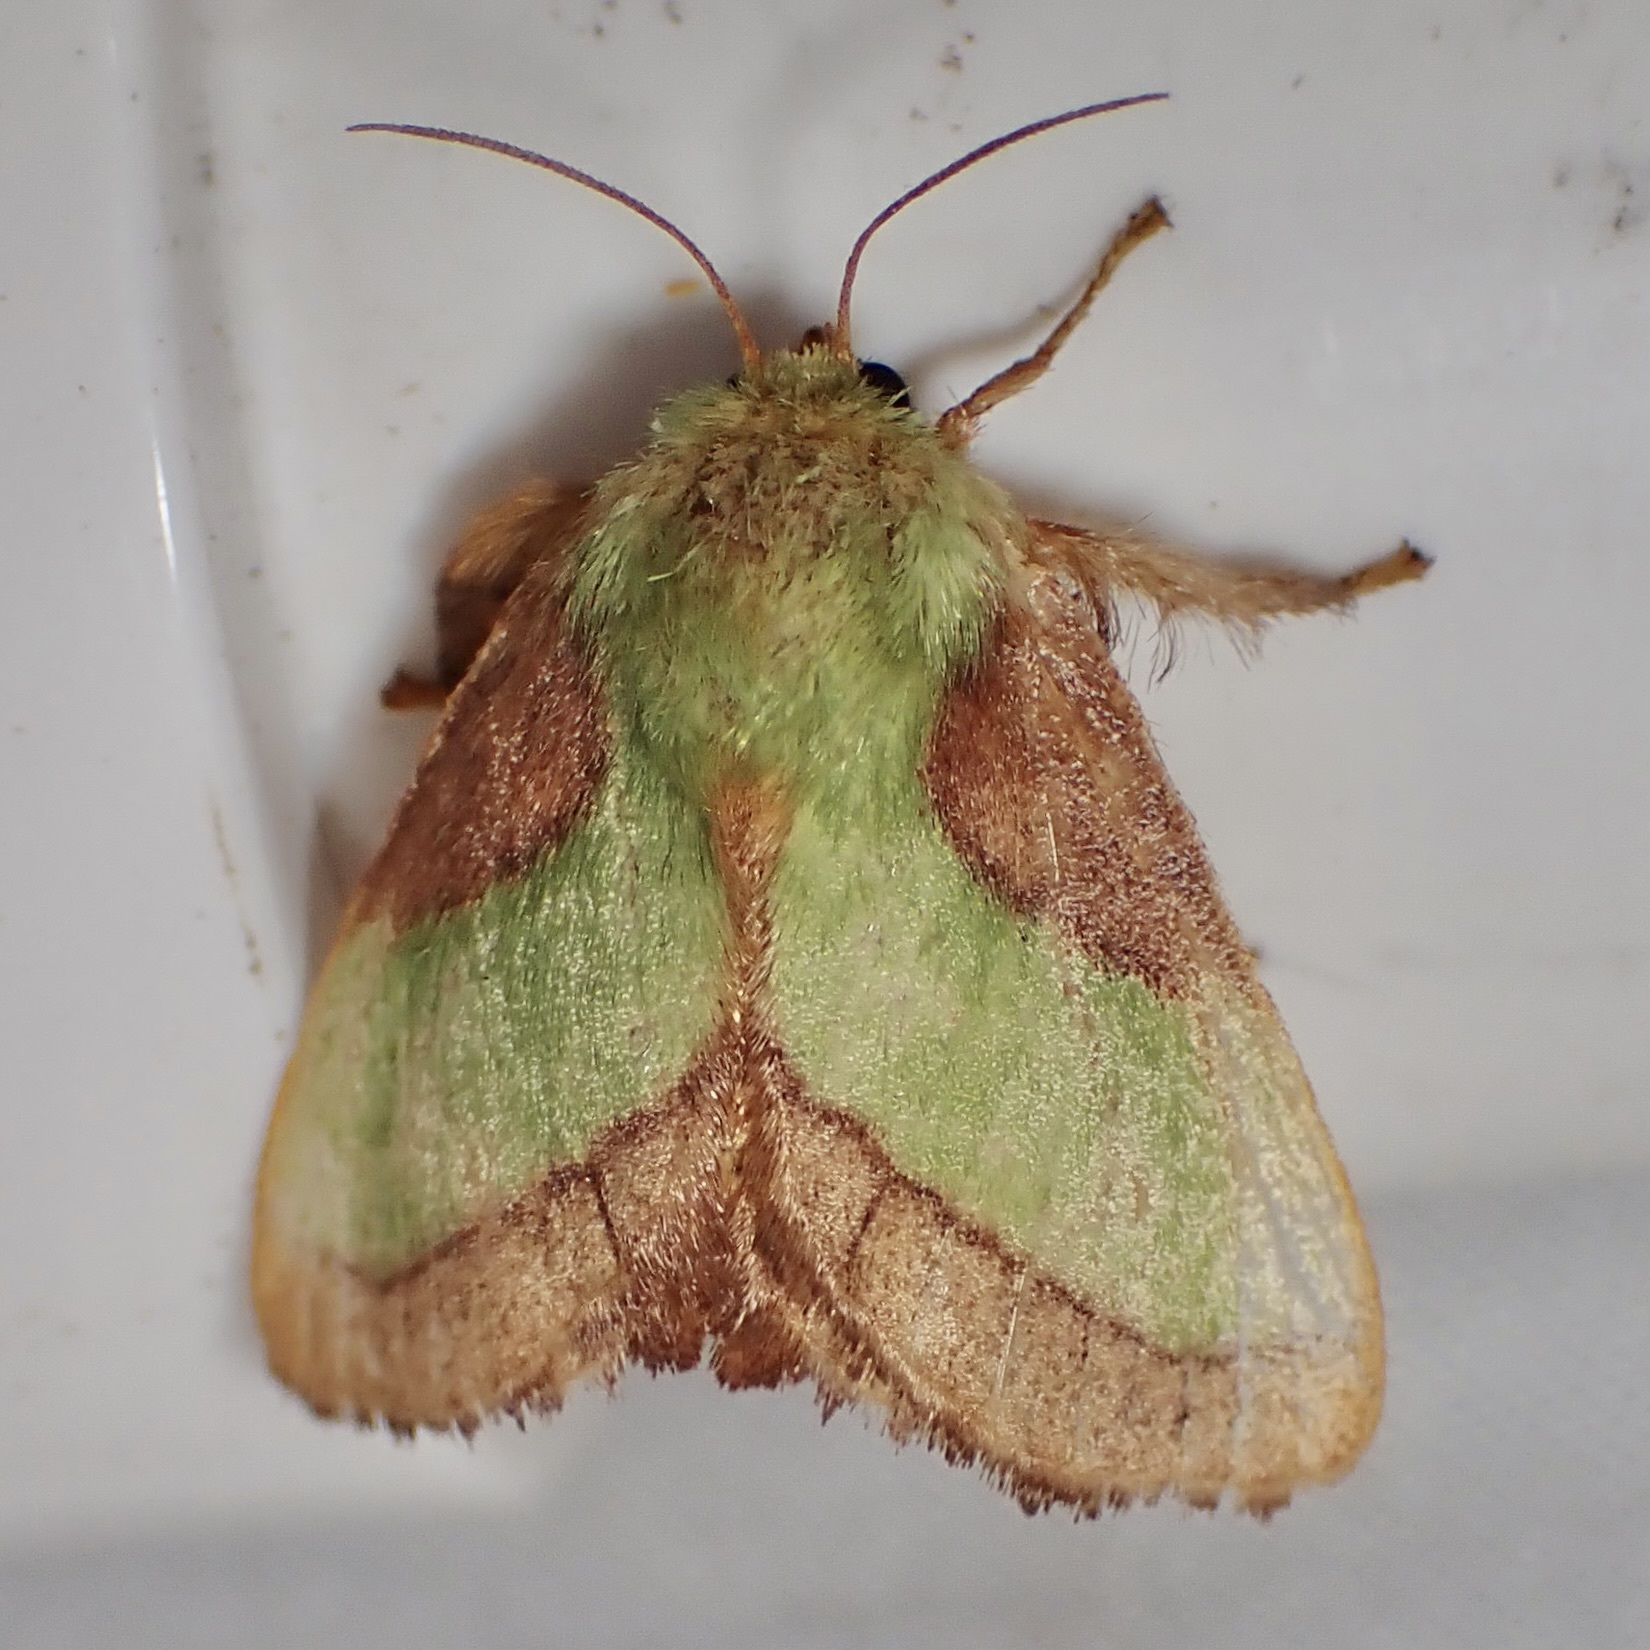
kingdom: Animalia
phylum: Arthropoda
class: Insecta
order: Lepidoptera
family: Limacodidae
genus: Parasa
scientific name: Parasa chloris
